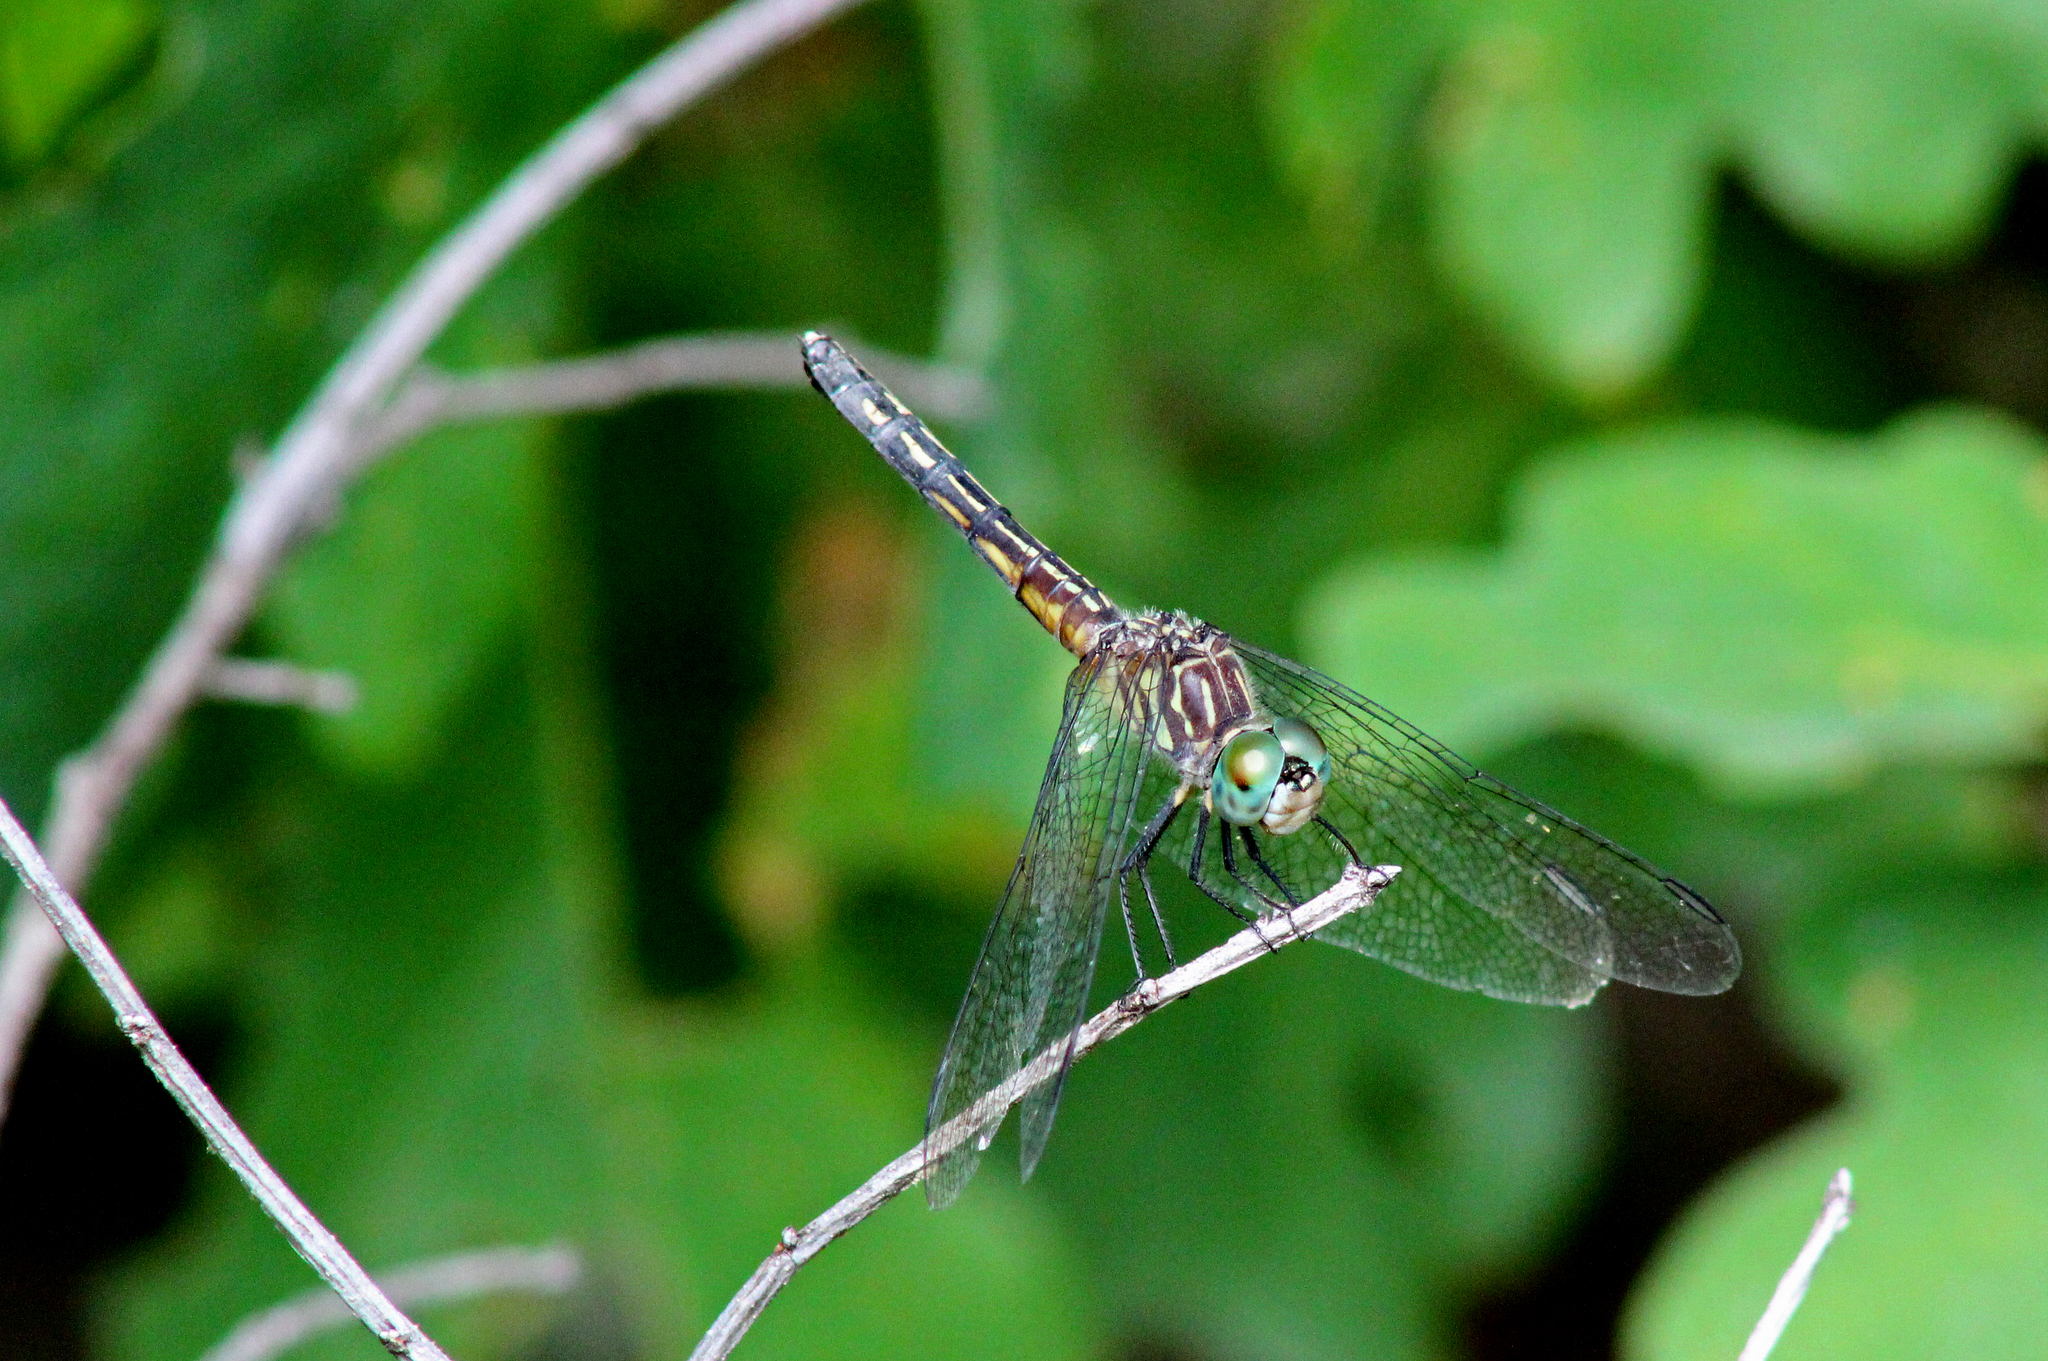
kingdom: Animalia
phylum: Arthropoda
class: Insecta
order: Odonata
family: Libellulidae
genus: Pachydiplax
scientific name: Pachydiplax longipennis
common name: Blue dasher
